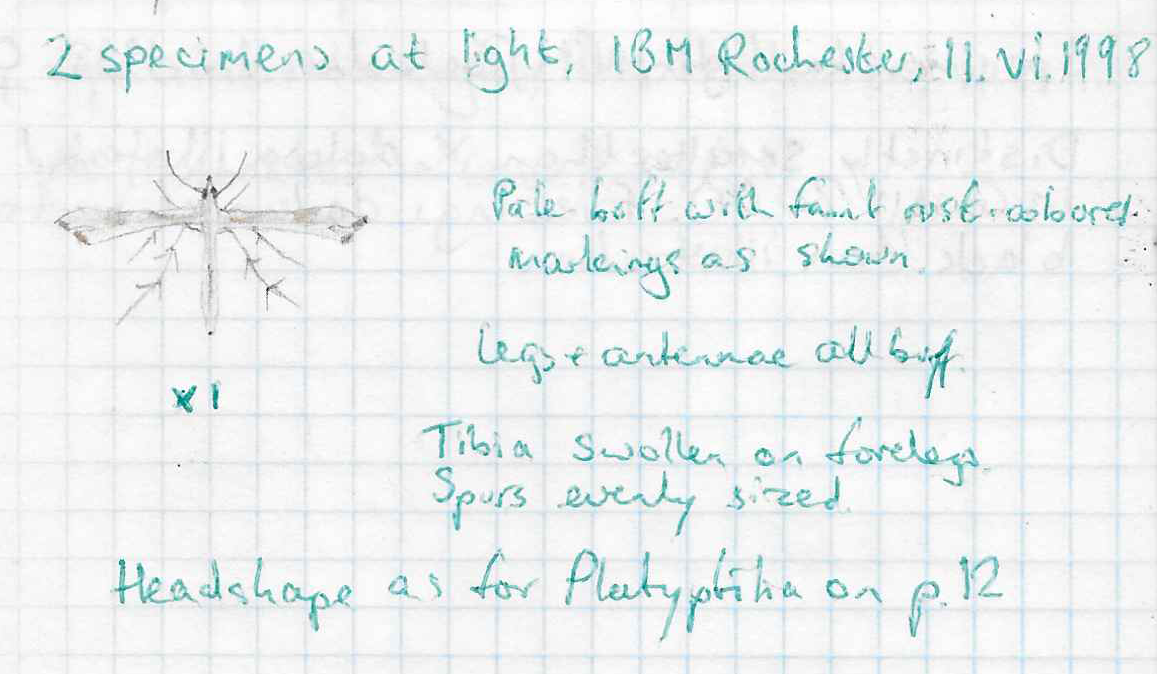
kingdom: Animalia
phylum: Arthropoda
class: Insecta
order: Lepidoptera
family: Pterophoridae
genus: Gillmeria
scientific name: Gillmeria pallidactyla
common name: Yarrow plume
